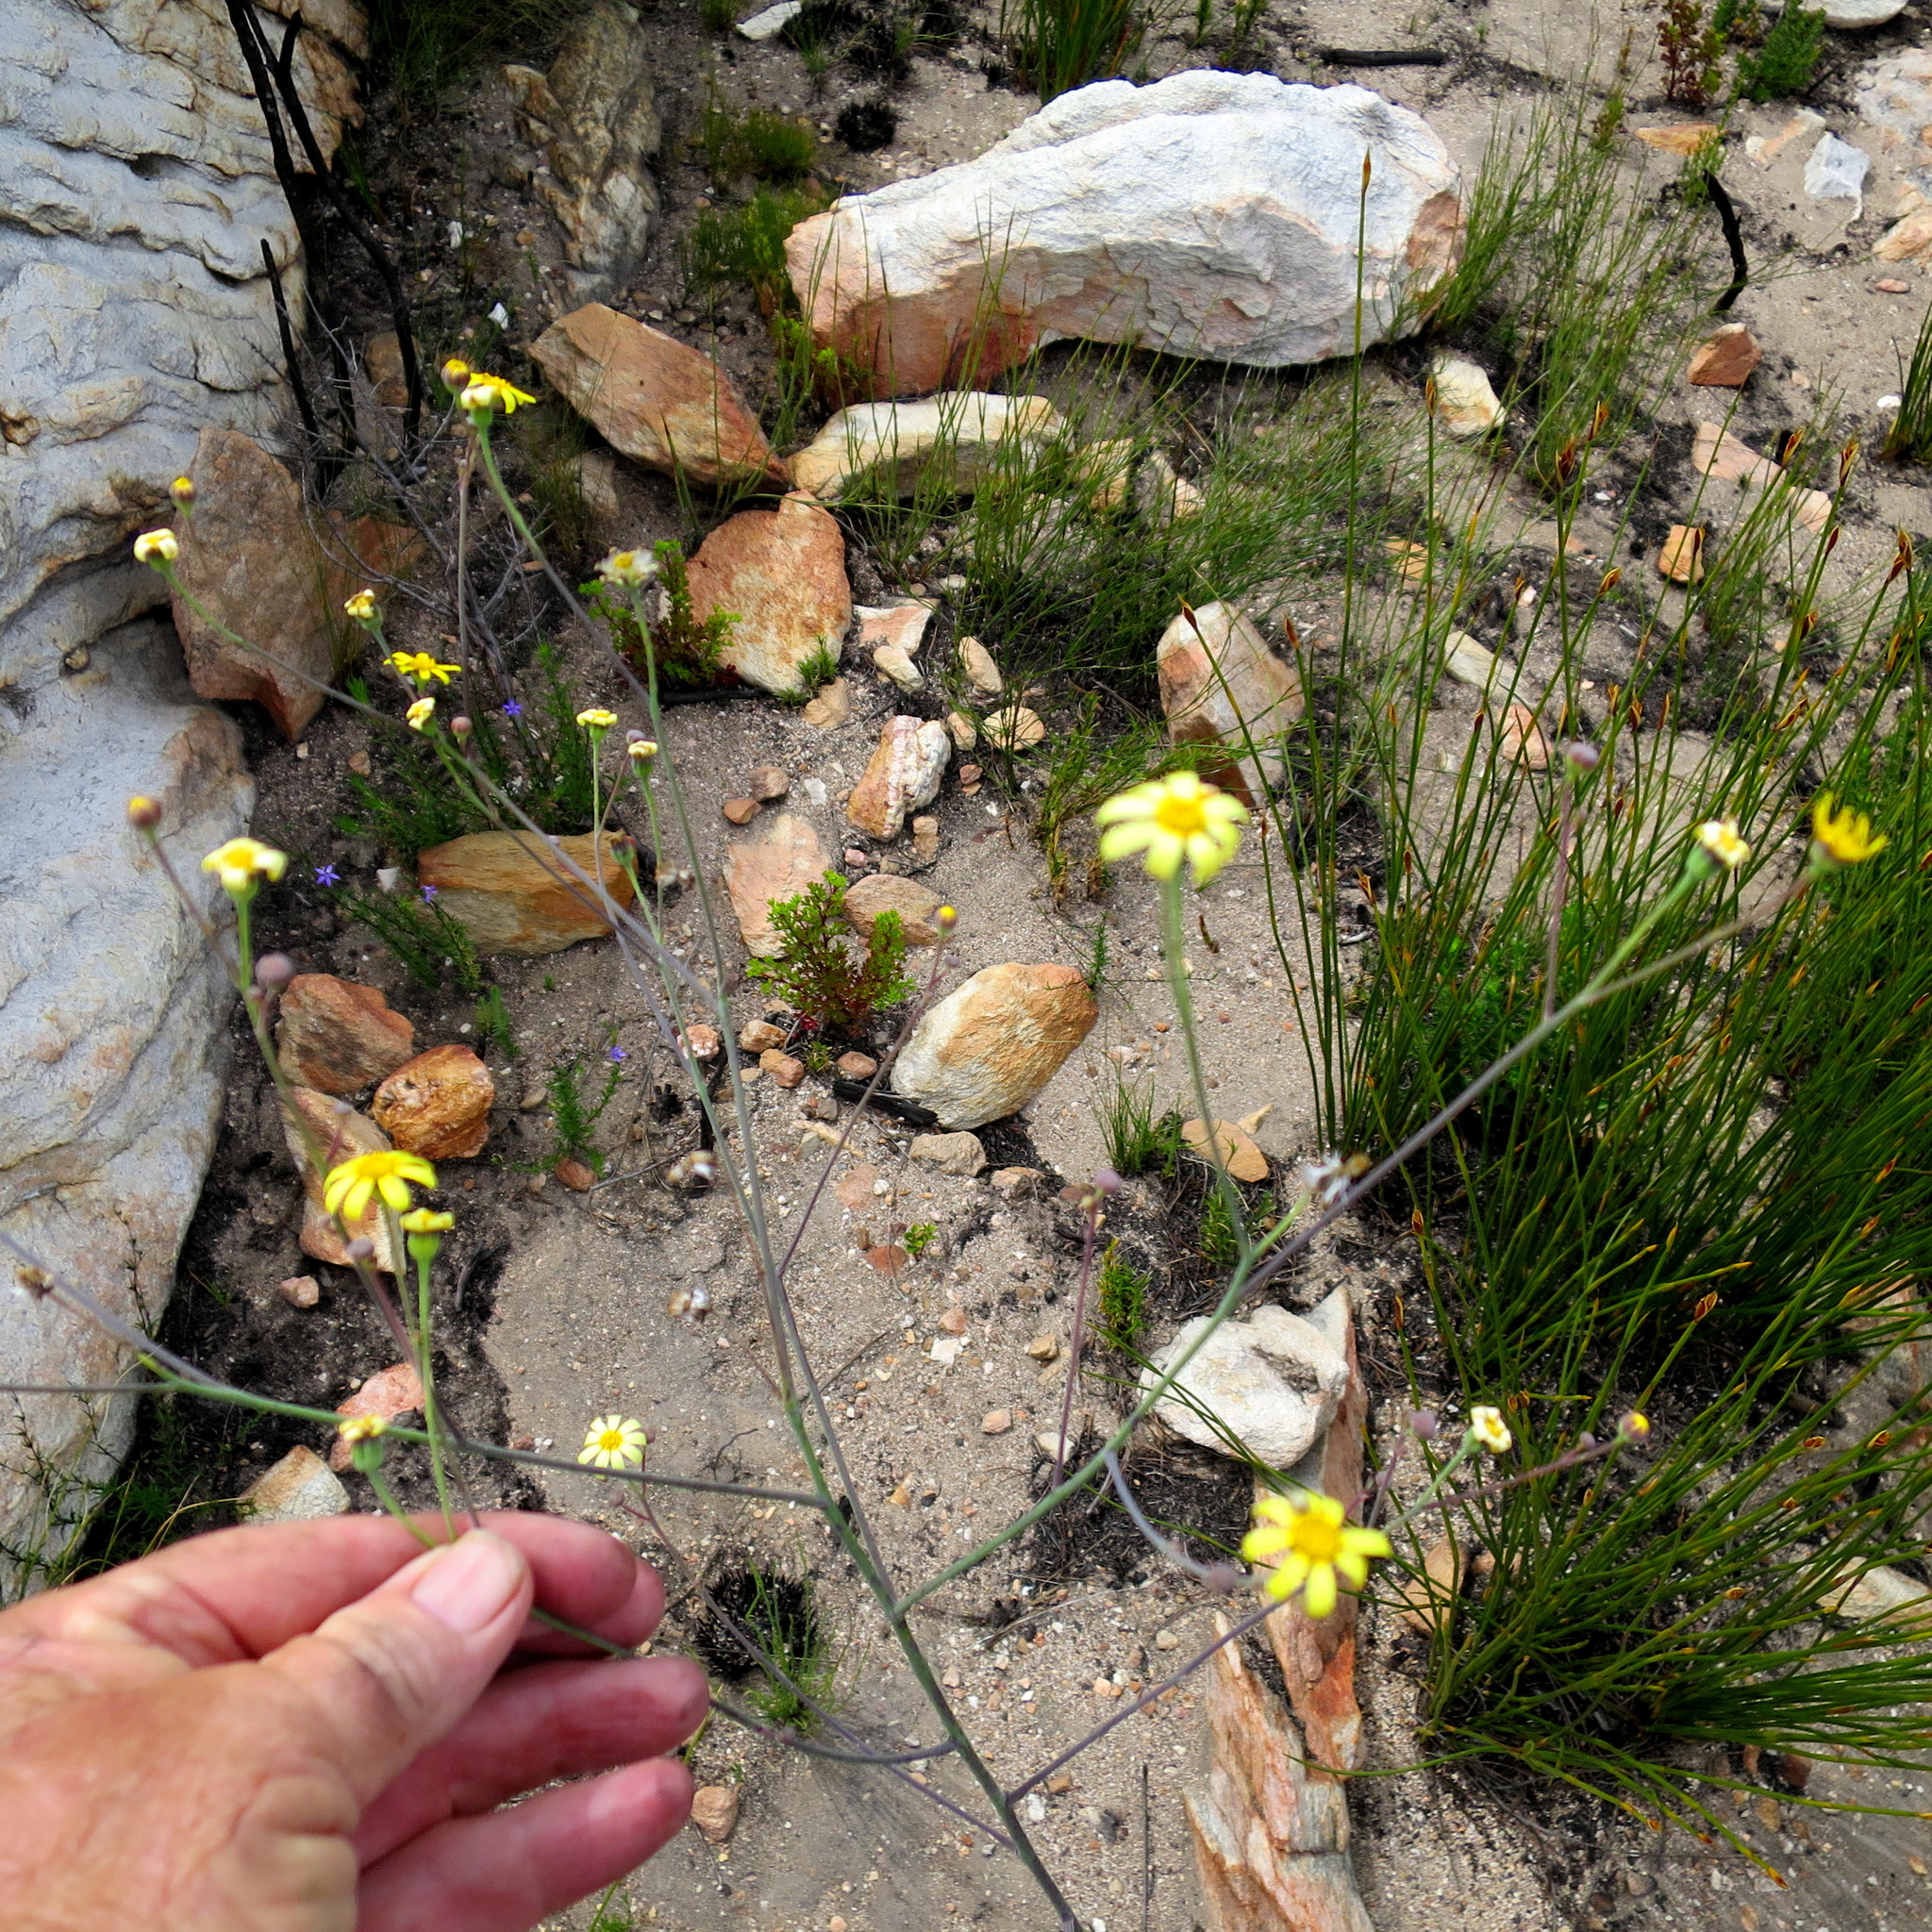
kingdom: Plantae
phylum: Tracheophyta
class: Magnoliopsida
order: Asterales
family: Asteraceae
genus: Othonna
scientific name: Othonna quinquedentata
